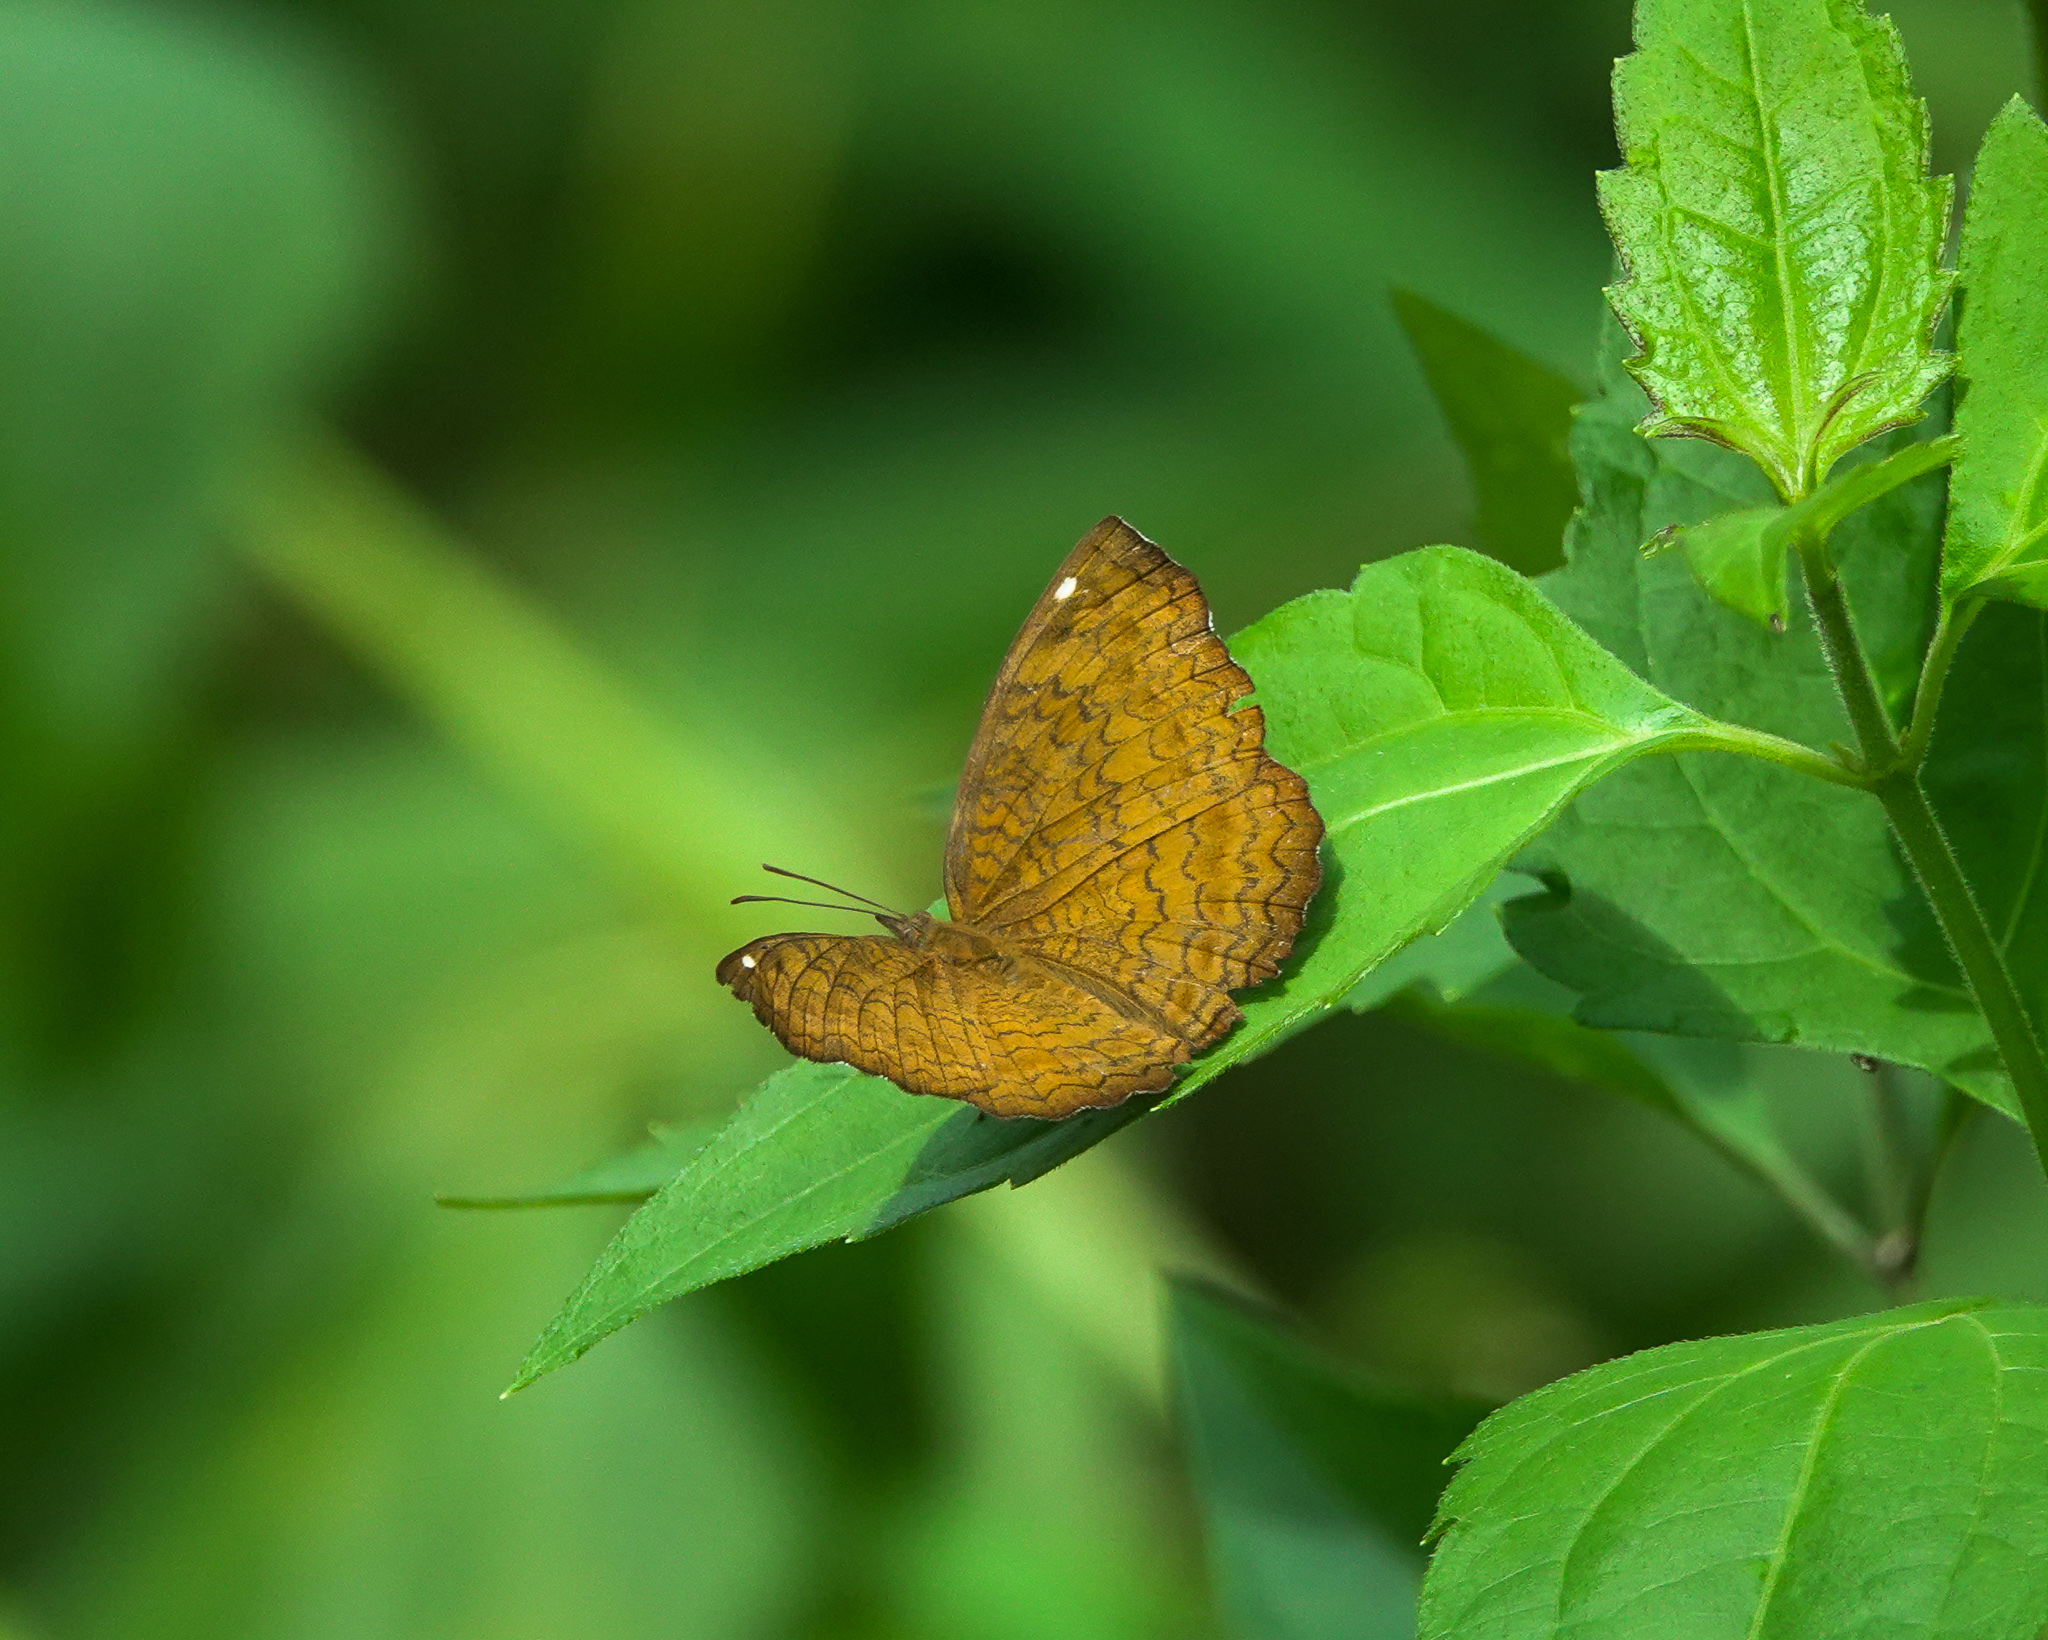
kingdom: Animalia
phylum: Arthropoda
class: Insecta
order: Lepidoptera
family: Nymphalidae
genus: Ariadne
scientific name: Ariadne merione
